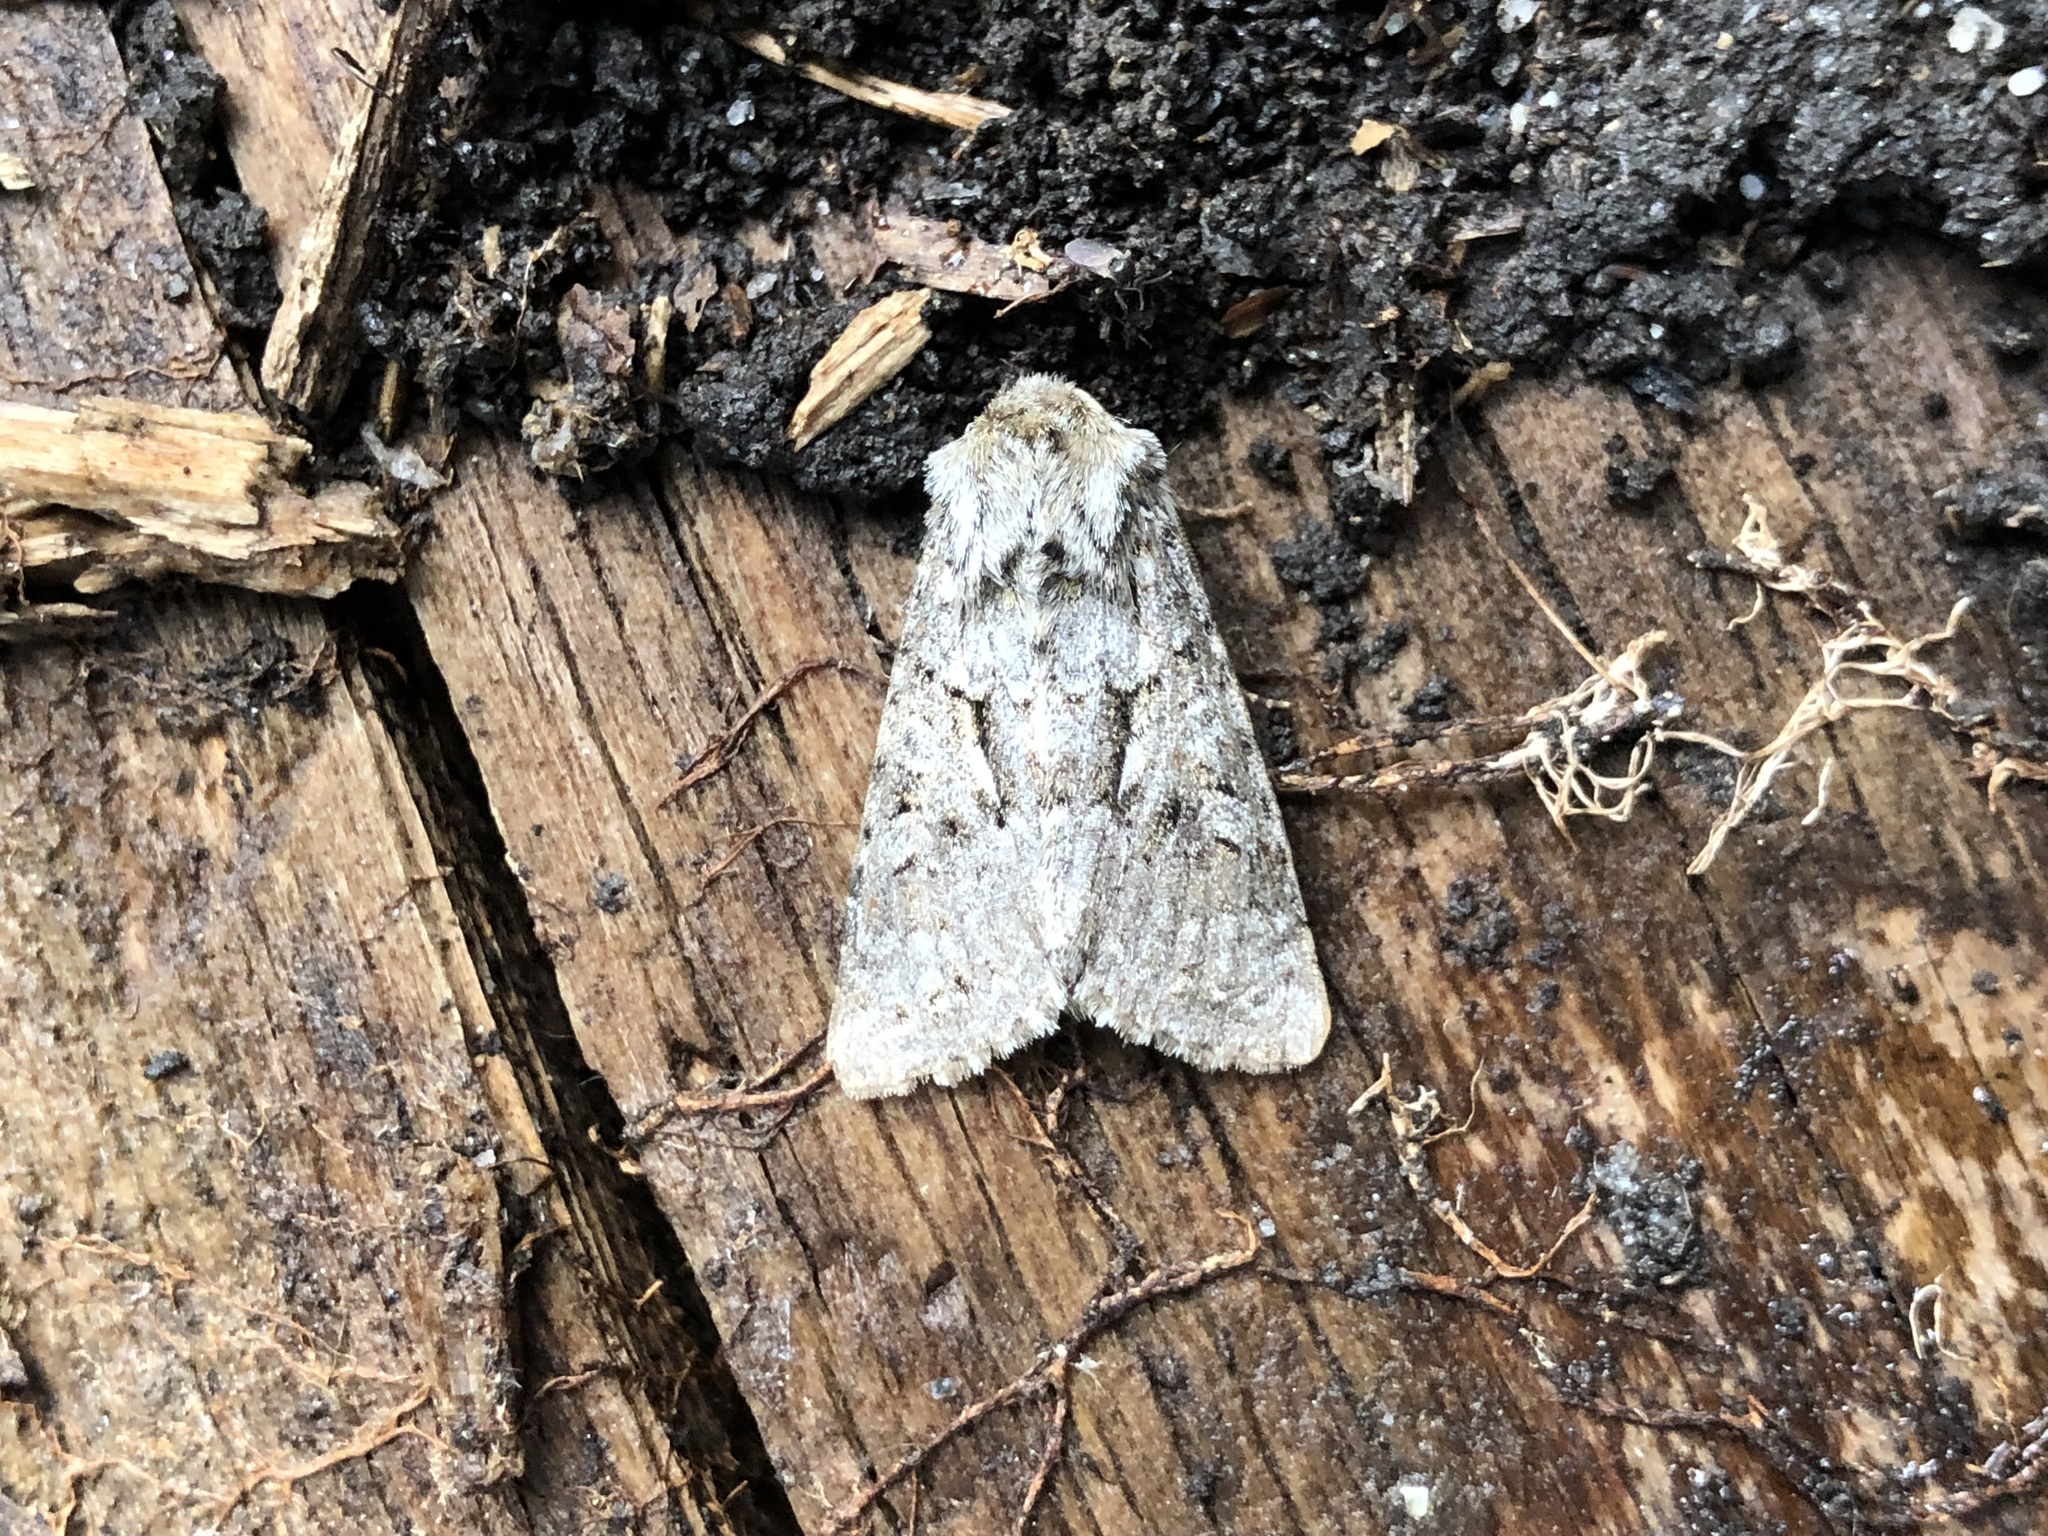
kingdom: Animalia
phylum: Arthropoda
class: Insecta
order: Lepidoptera
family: Noctuidae
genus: Hada
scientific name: Hada plebeja
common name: Shears
